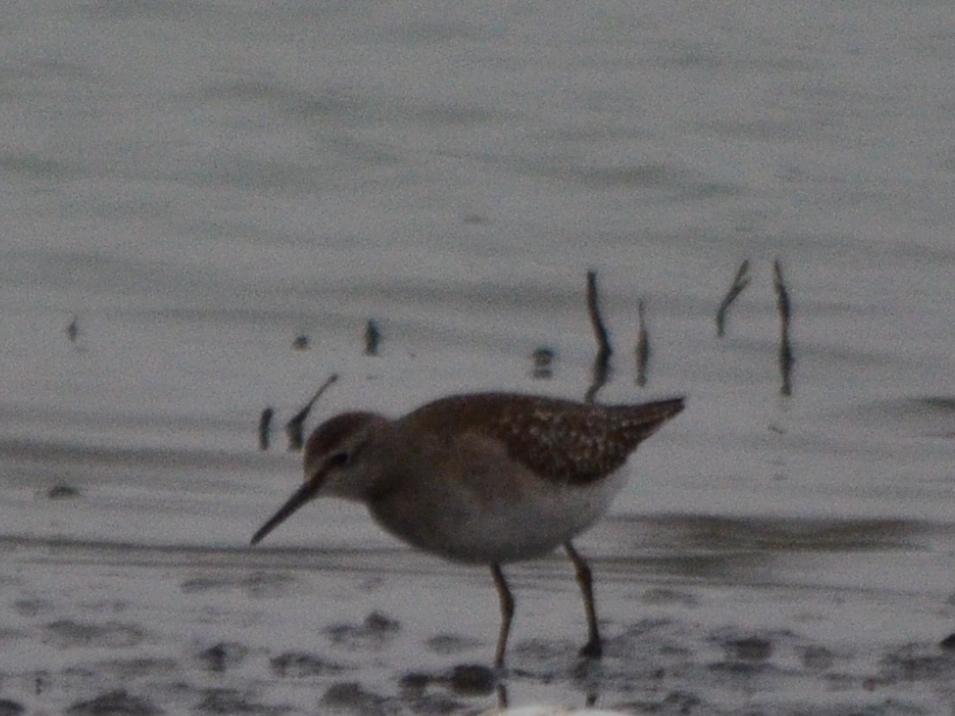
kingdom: Animalia
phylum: Chordata
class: Aves
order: Charadriiformes
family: Scolopacidae
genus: Tringa
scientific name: Tringa glareola
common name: Wood sandpiper
